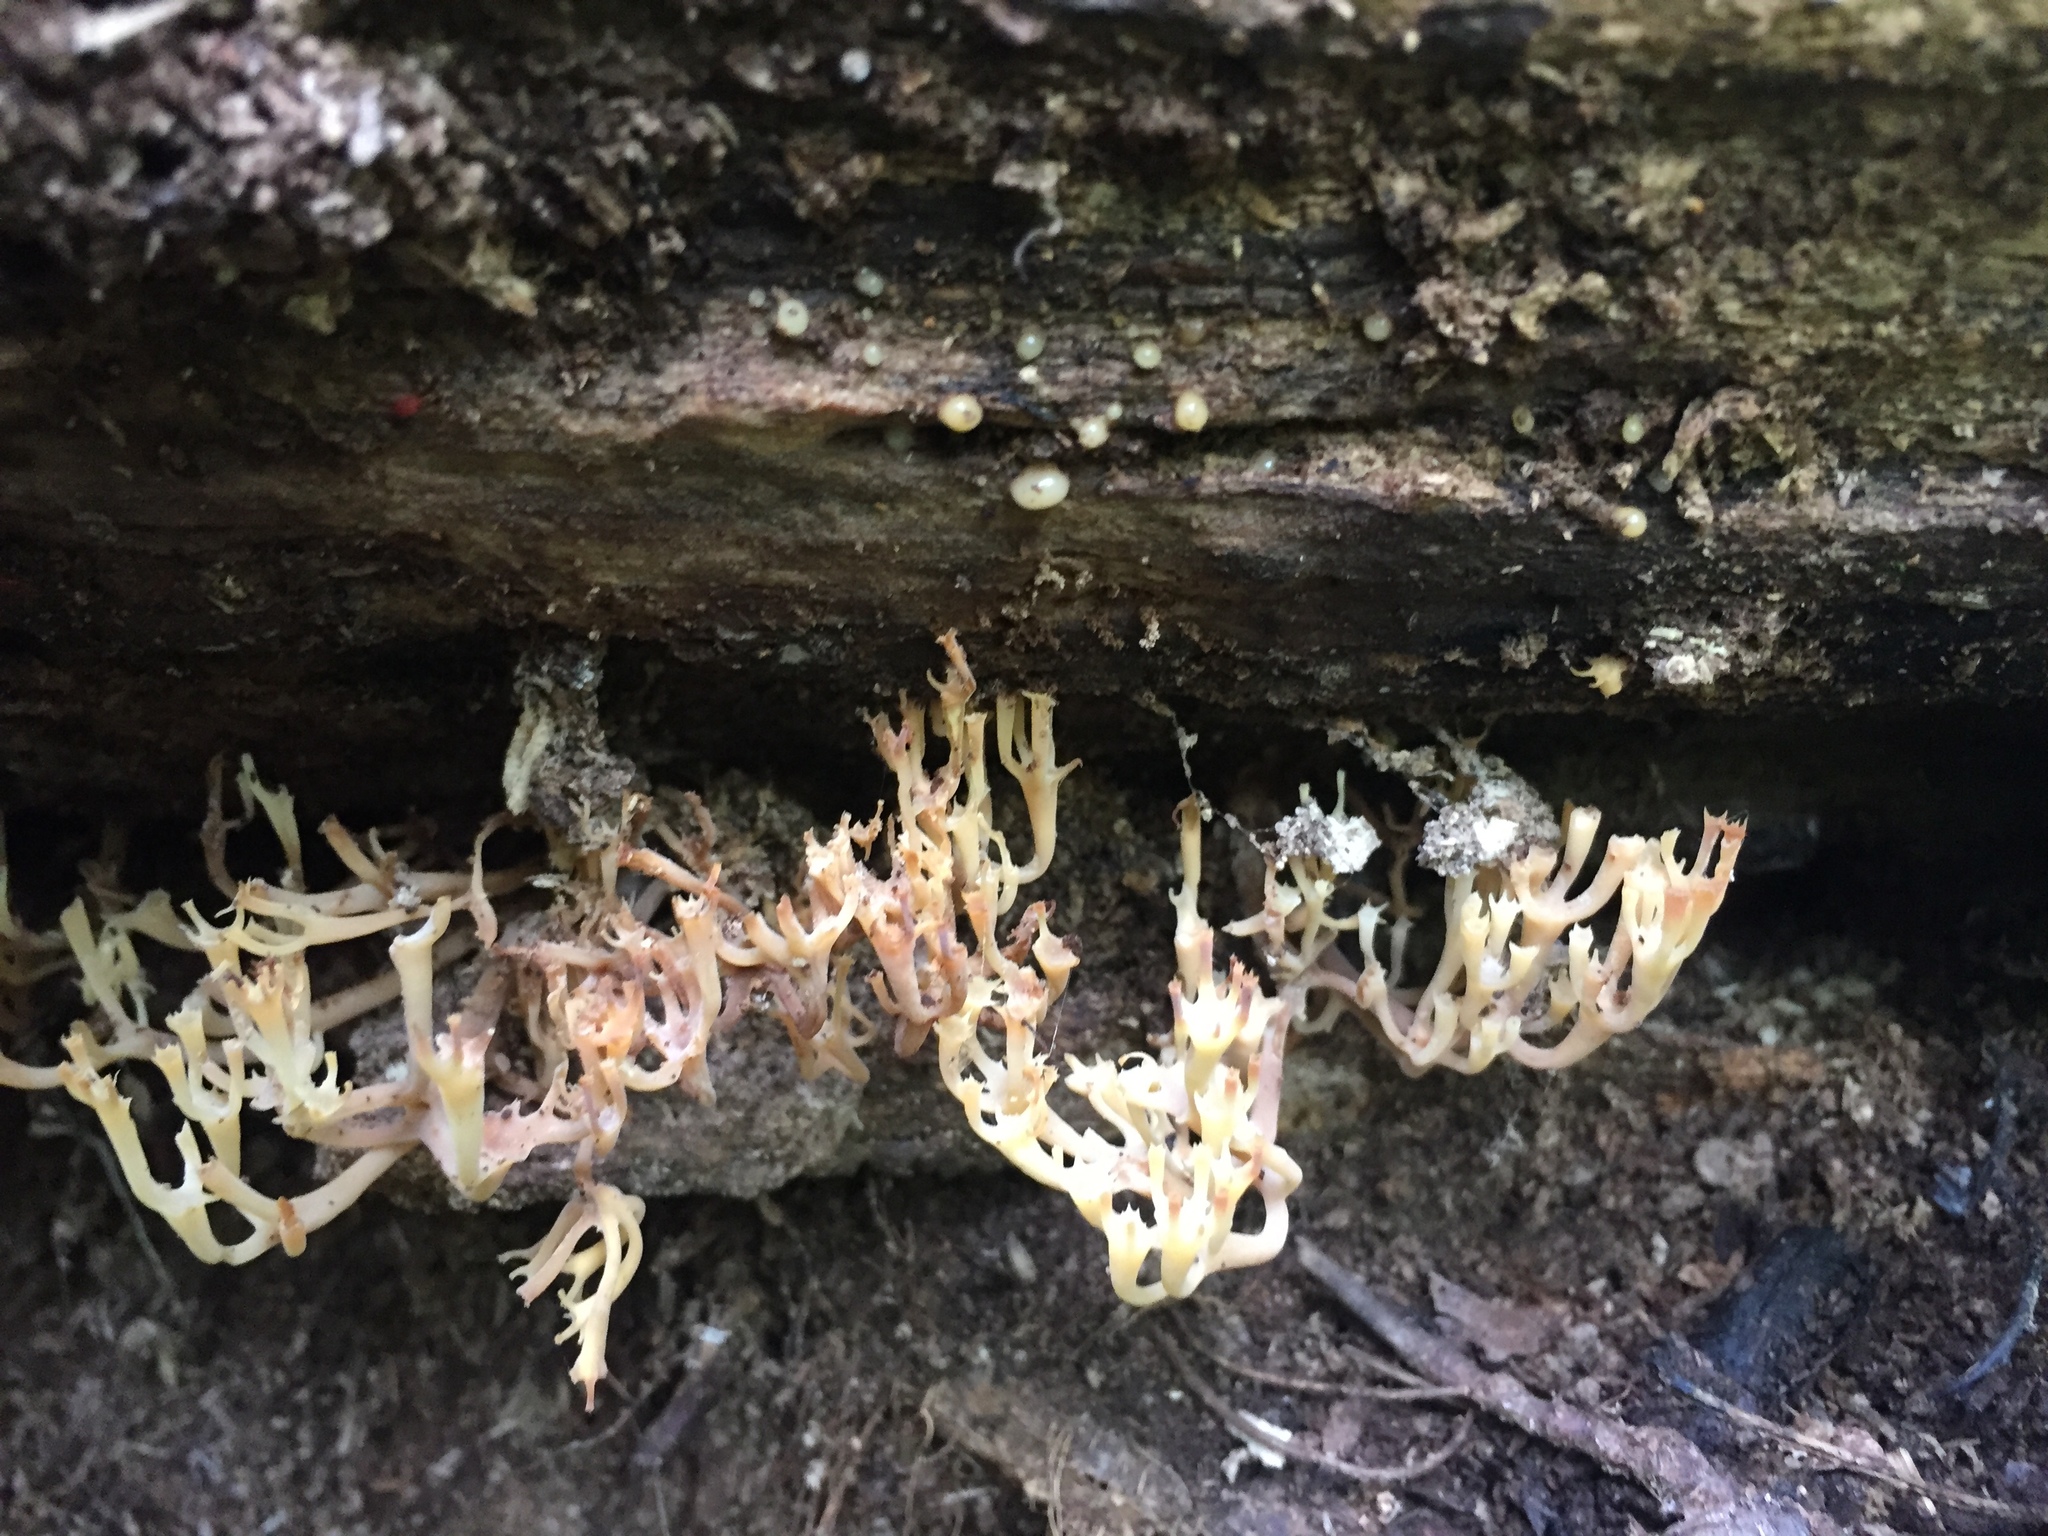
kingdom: Fungi
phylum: Basidiomycota
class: Agaricomycetes
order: Russulales
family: Auriscalpiaceae
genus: Artomyces
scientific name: Artomyces pyxidatus
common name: Crown-tipped coral fungus
